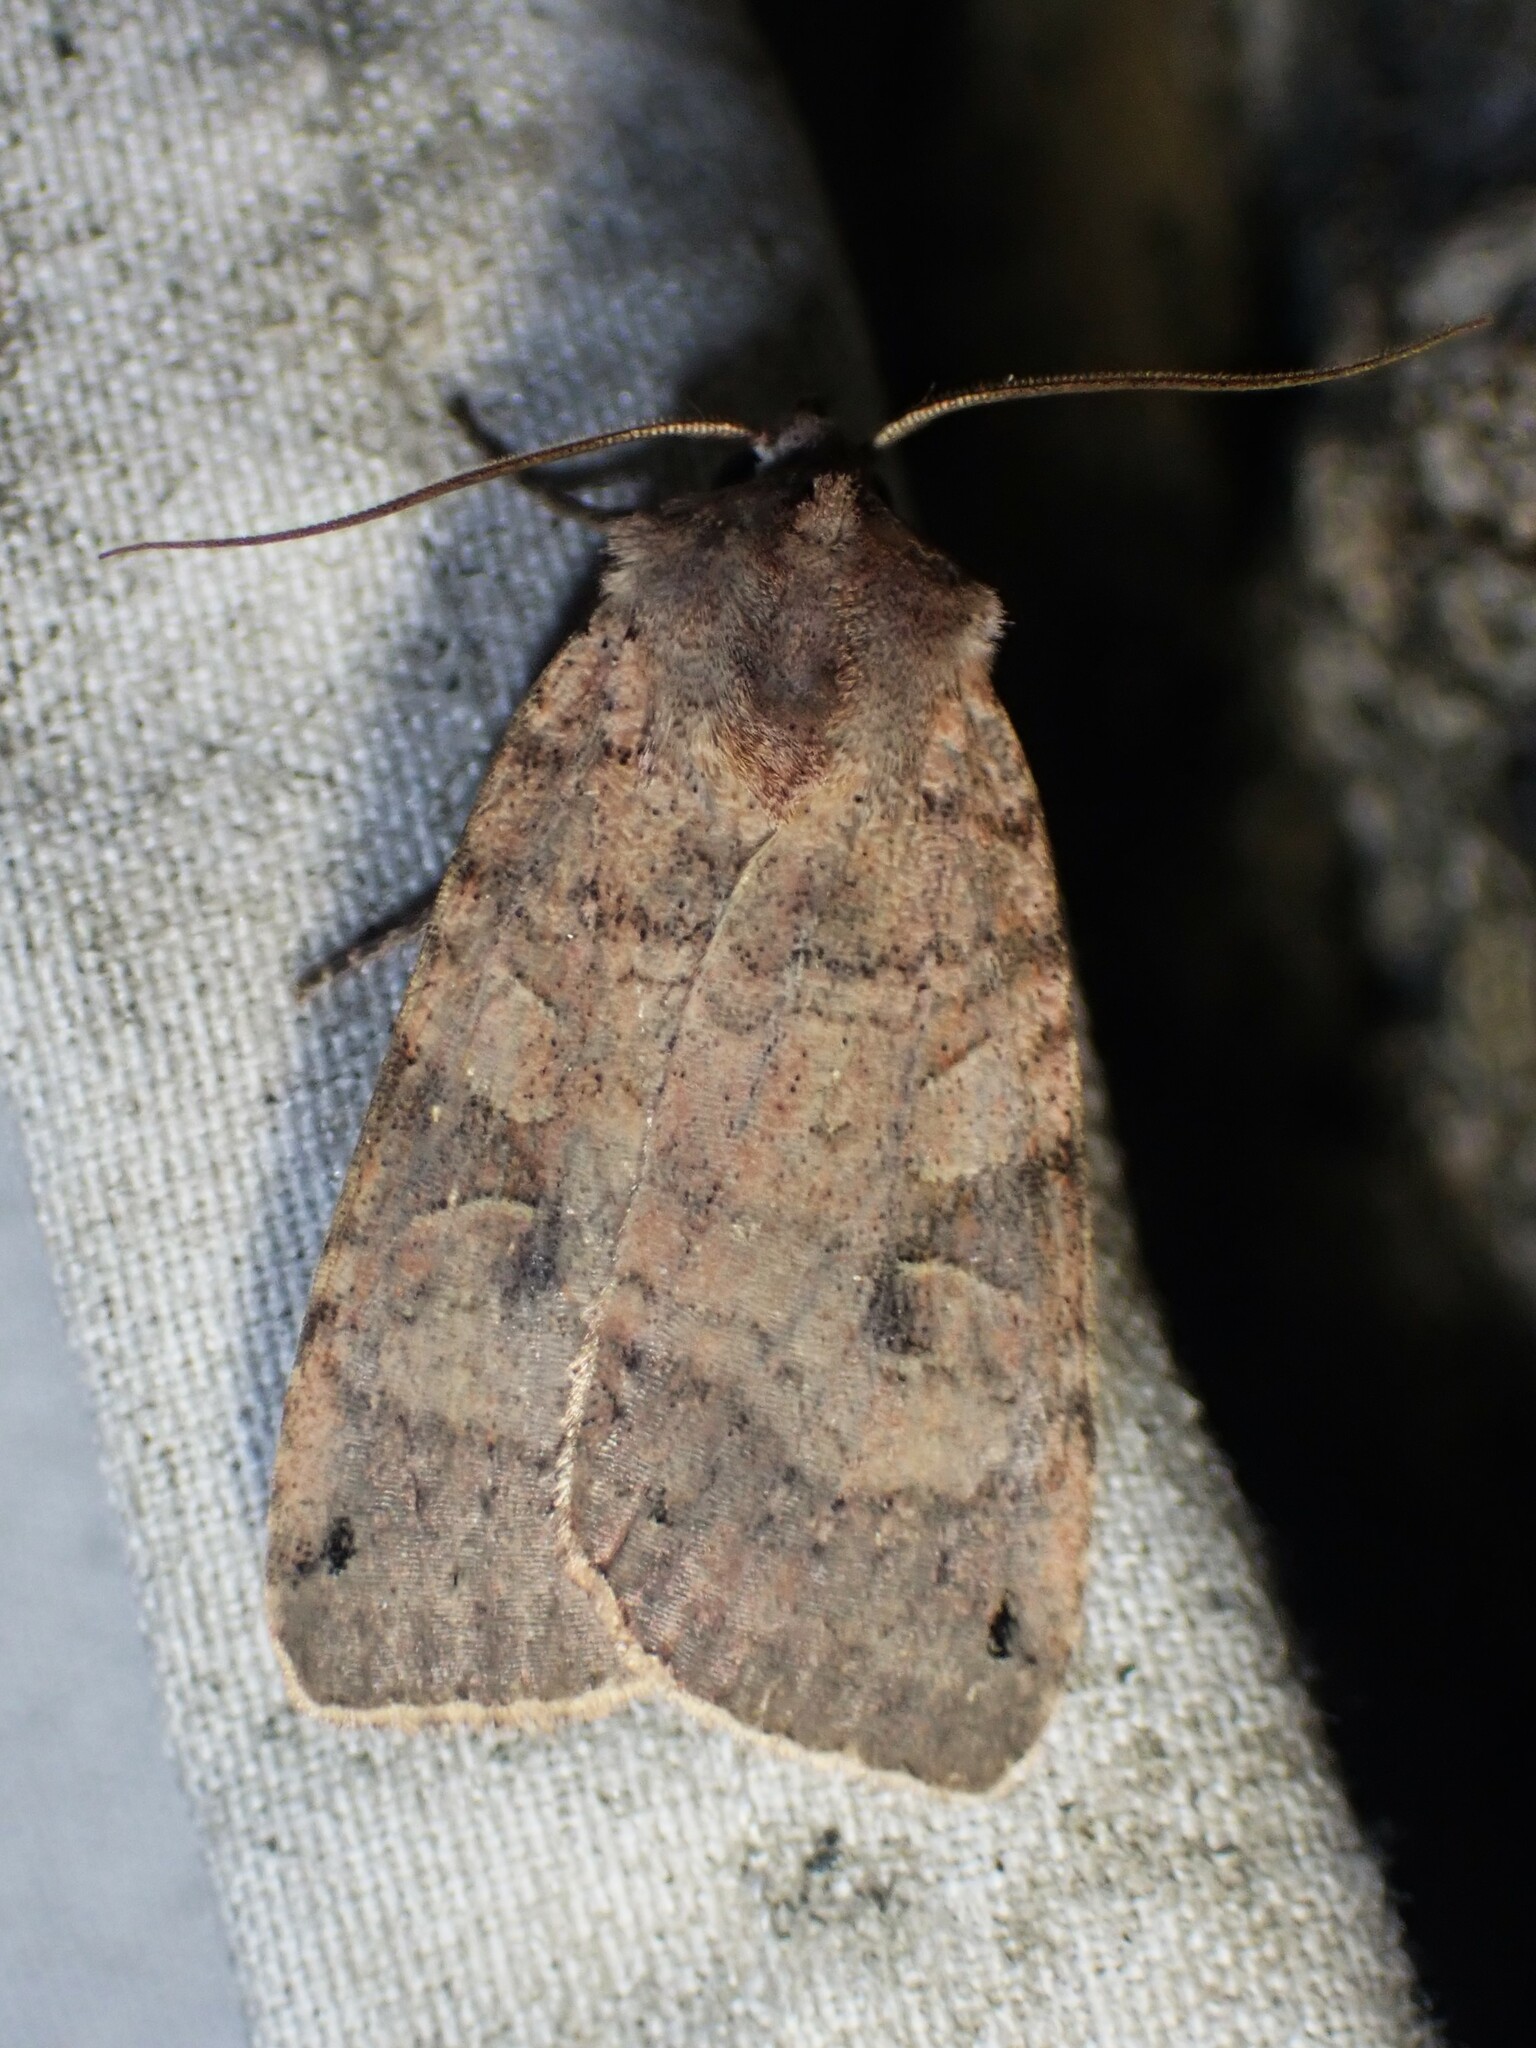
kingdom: Animalia
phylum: Arthropoda
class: Insecta
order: Lepidoptera
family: Noctuidae
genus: Xestia
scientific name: Xestia smithii
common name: Smith's dart
